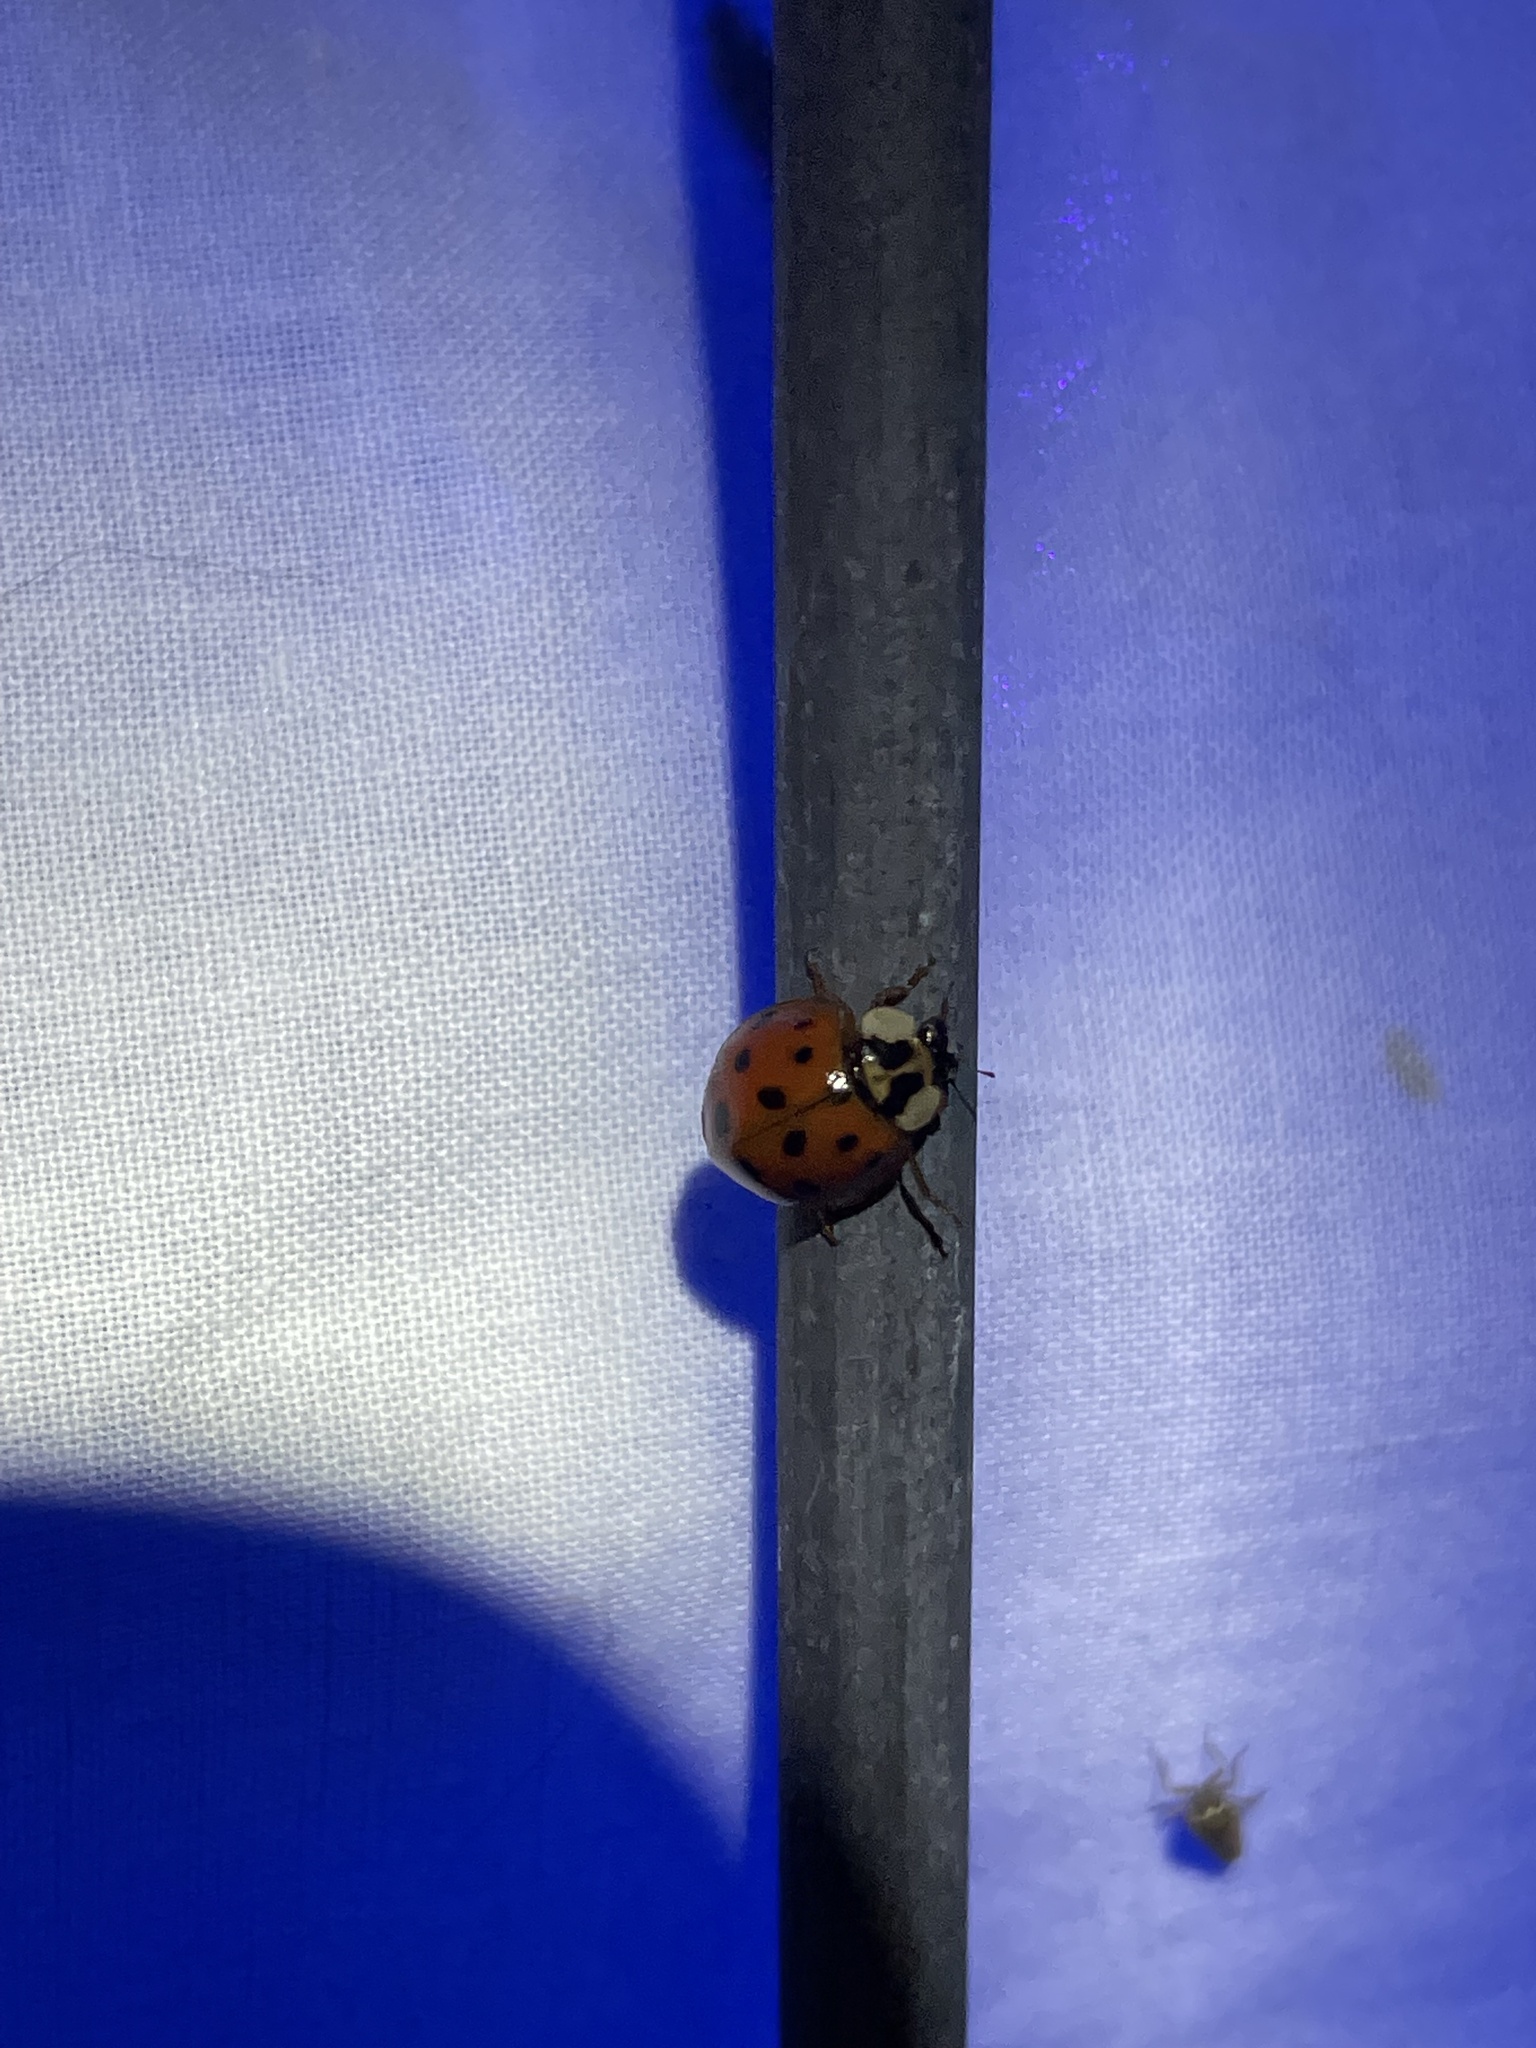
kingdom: Animalia
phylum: Arthropoda
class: Insecta
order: Coleoptera
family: Coccinellidae
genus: Harmonia
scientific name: Harmonia axyridis
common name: Harlequin ladybird
